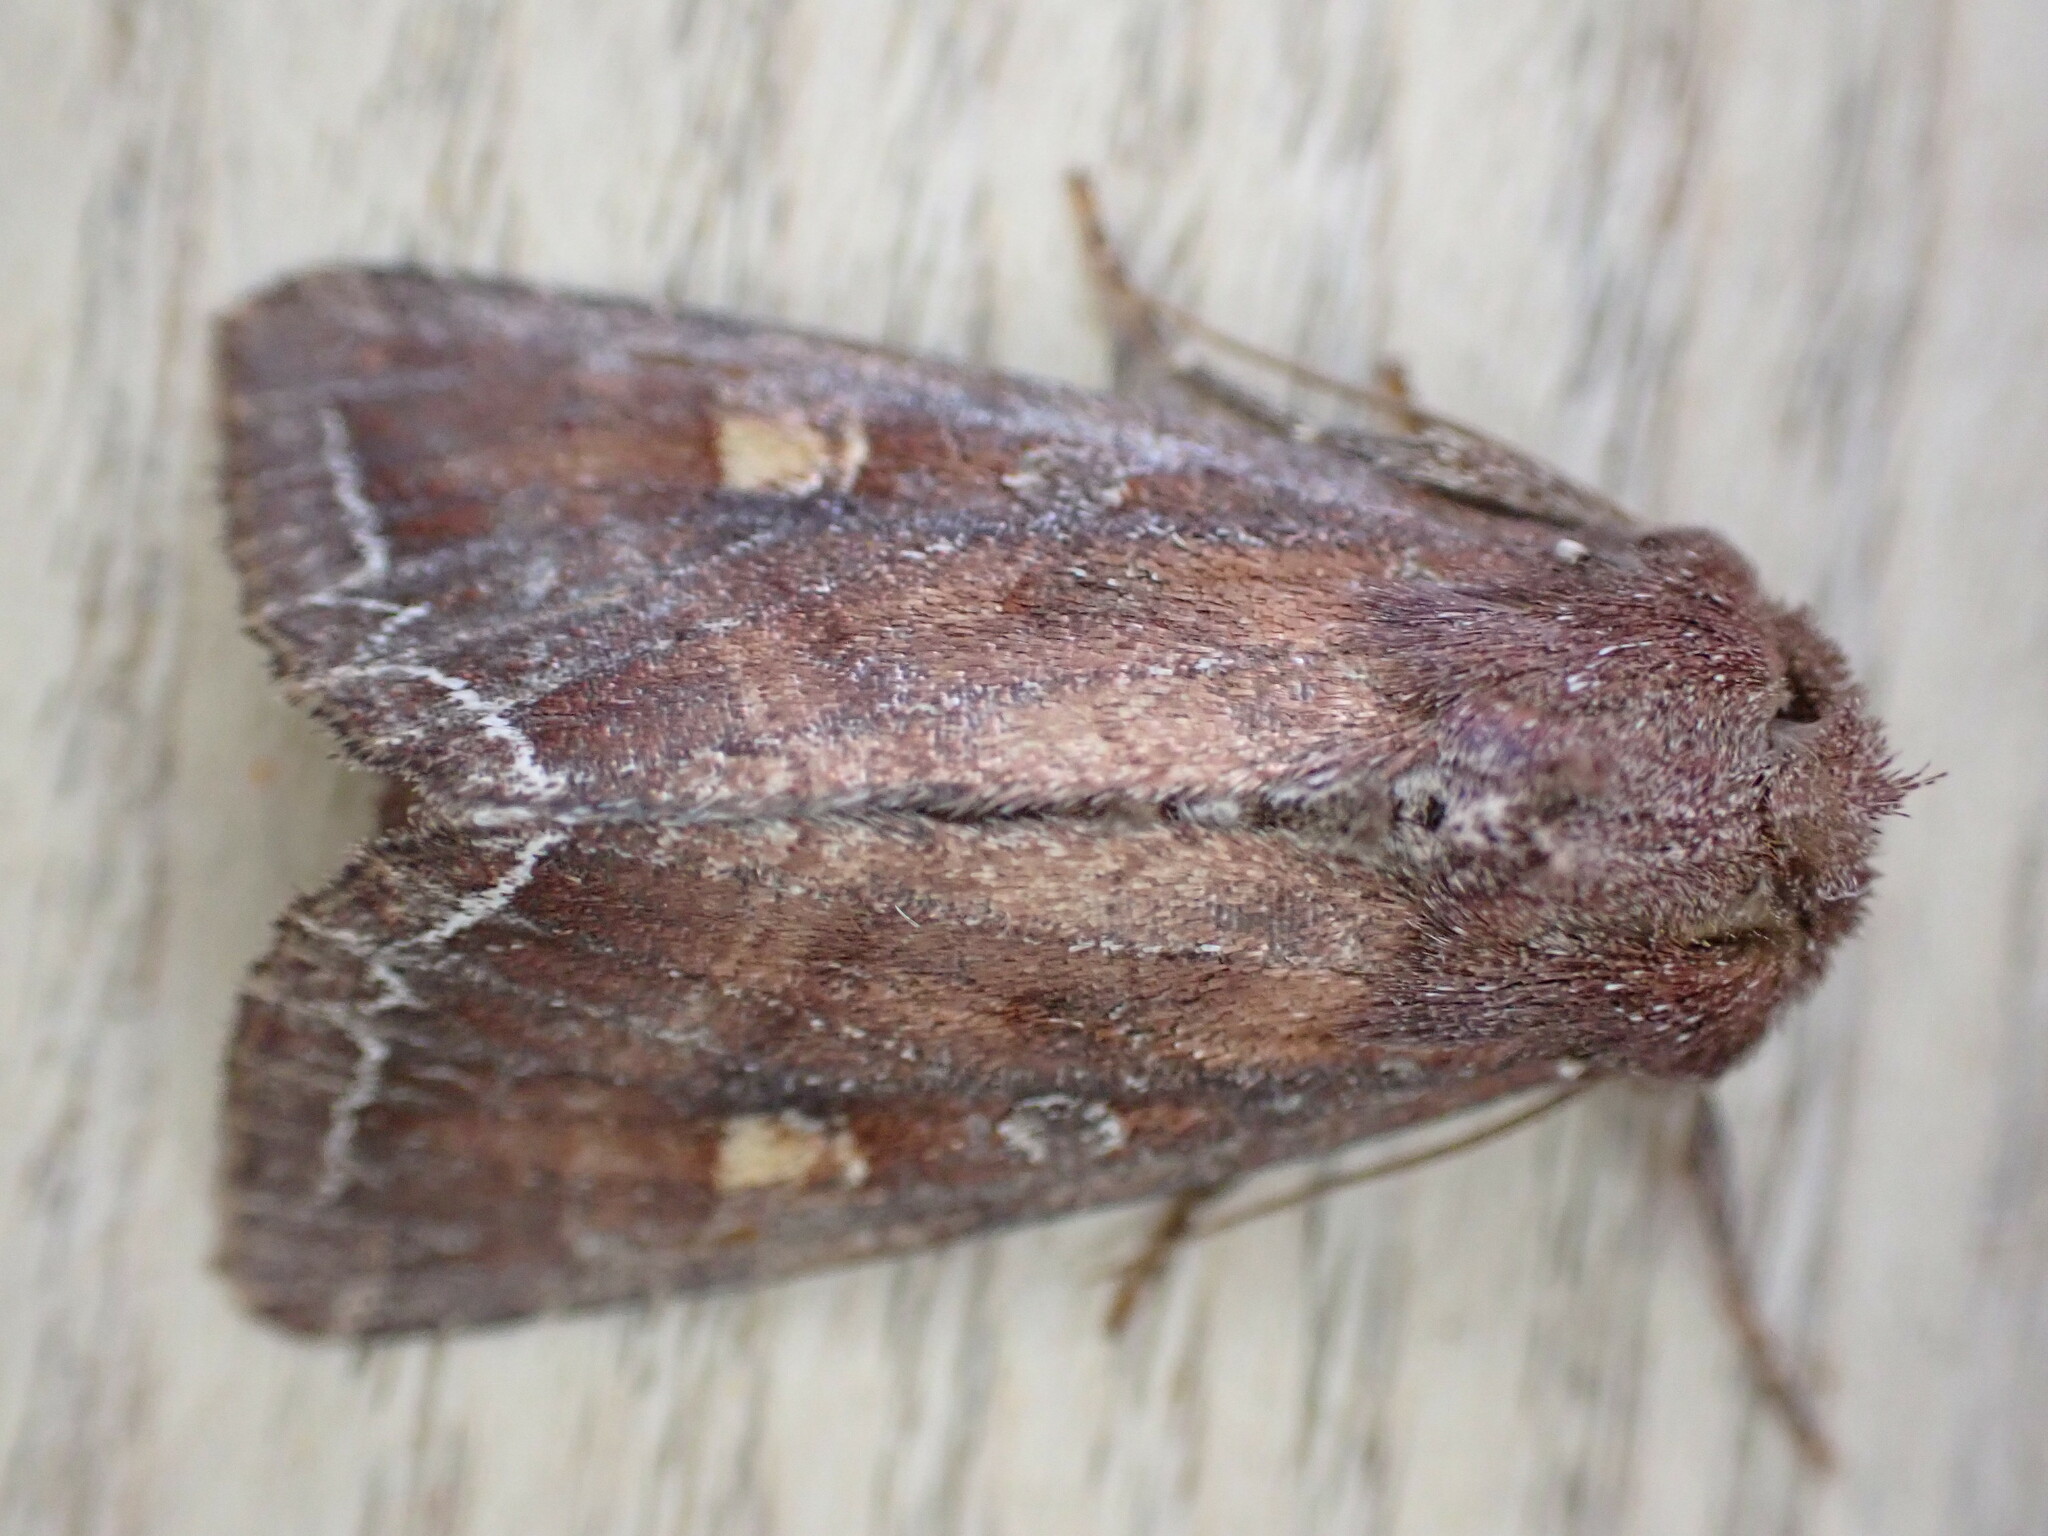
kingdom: Animalia
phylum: Arthropoda
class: Insecta
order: Lepidoptera
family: Noctuidae
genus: Lacanobia
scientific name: Lacanobia oleracea
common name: Bright-line brown-eye
